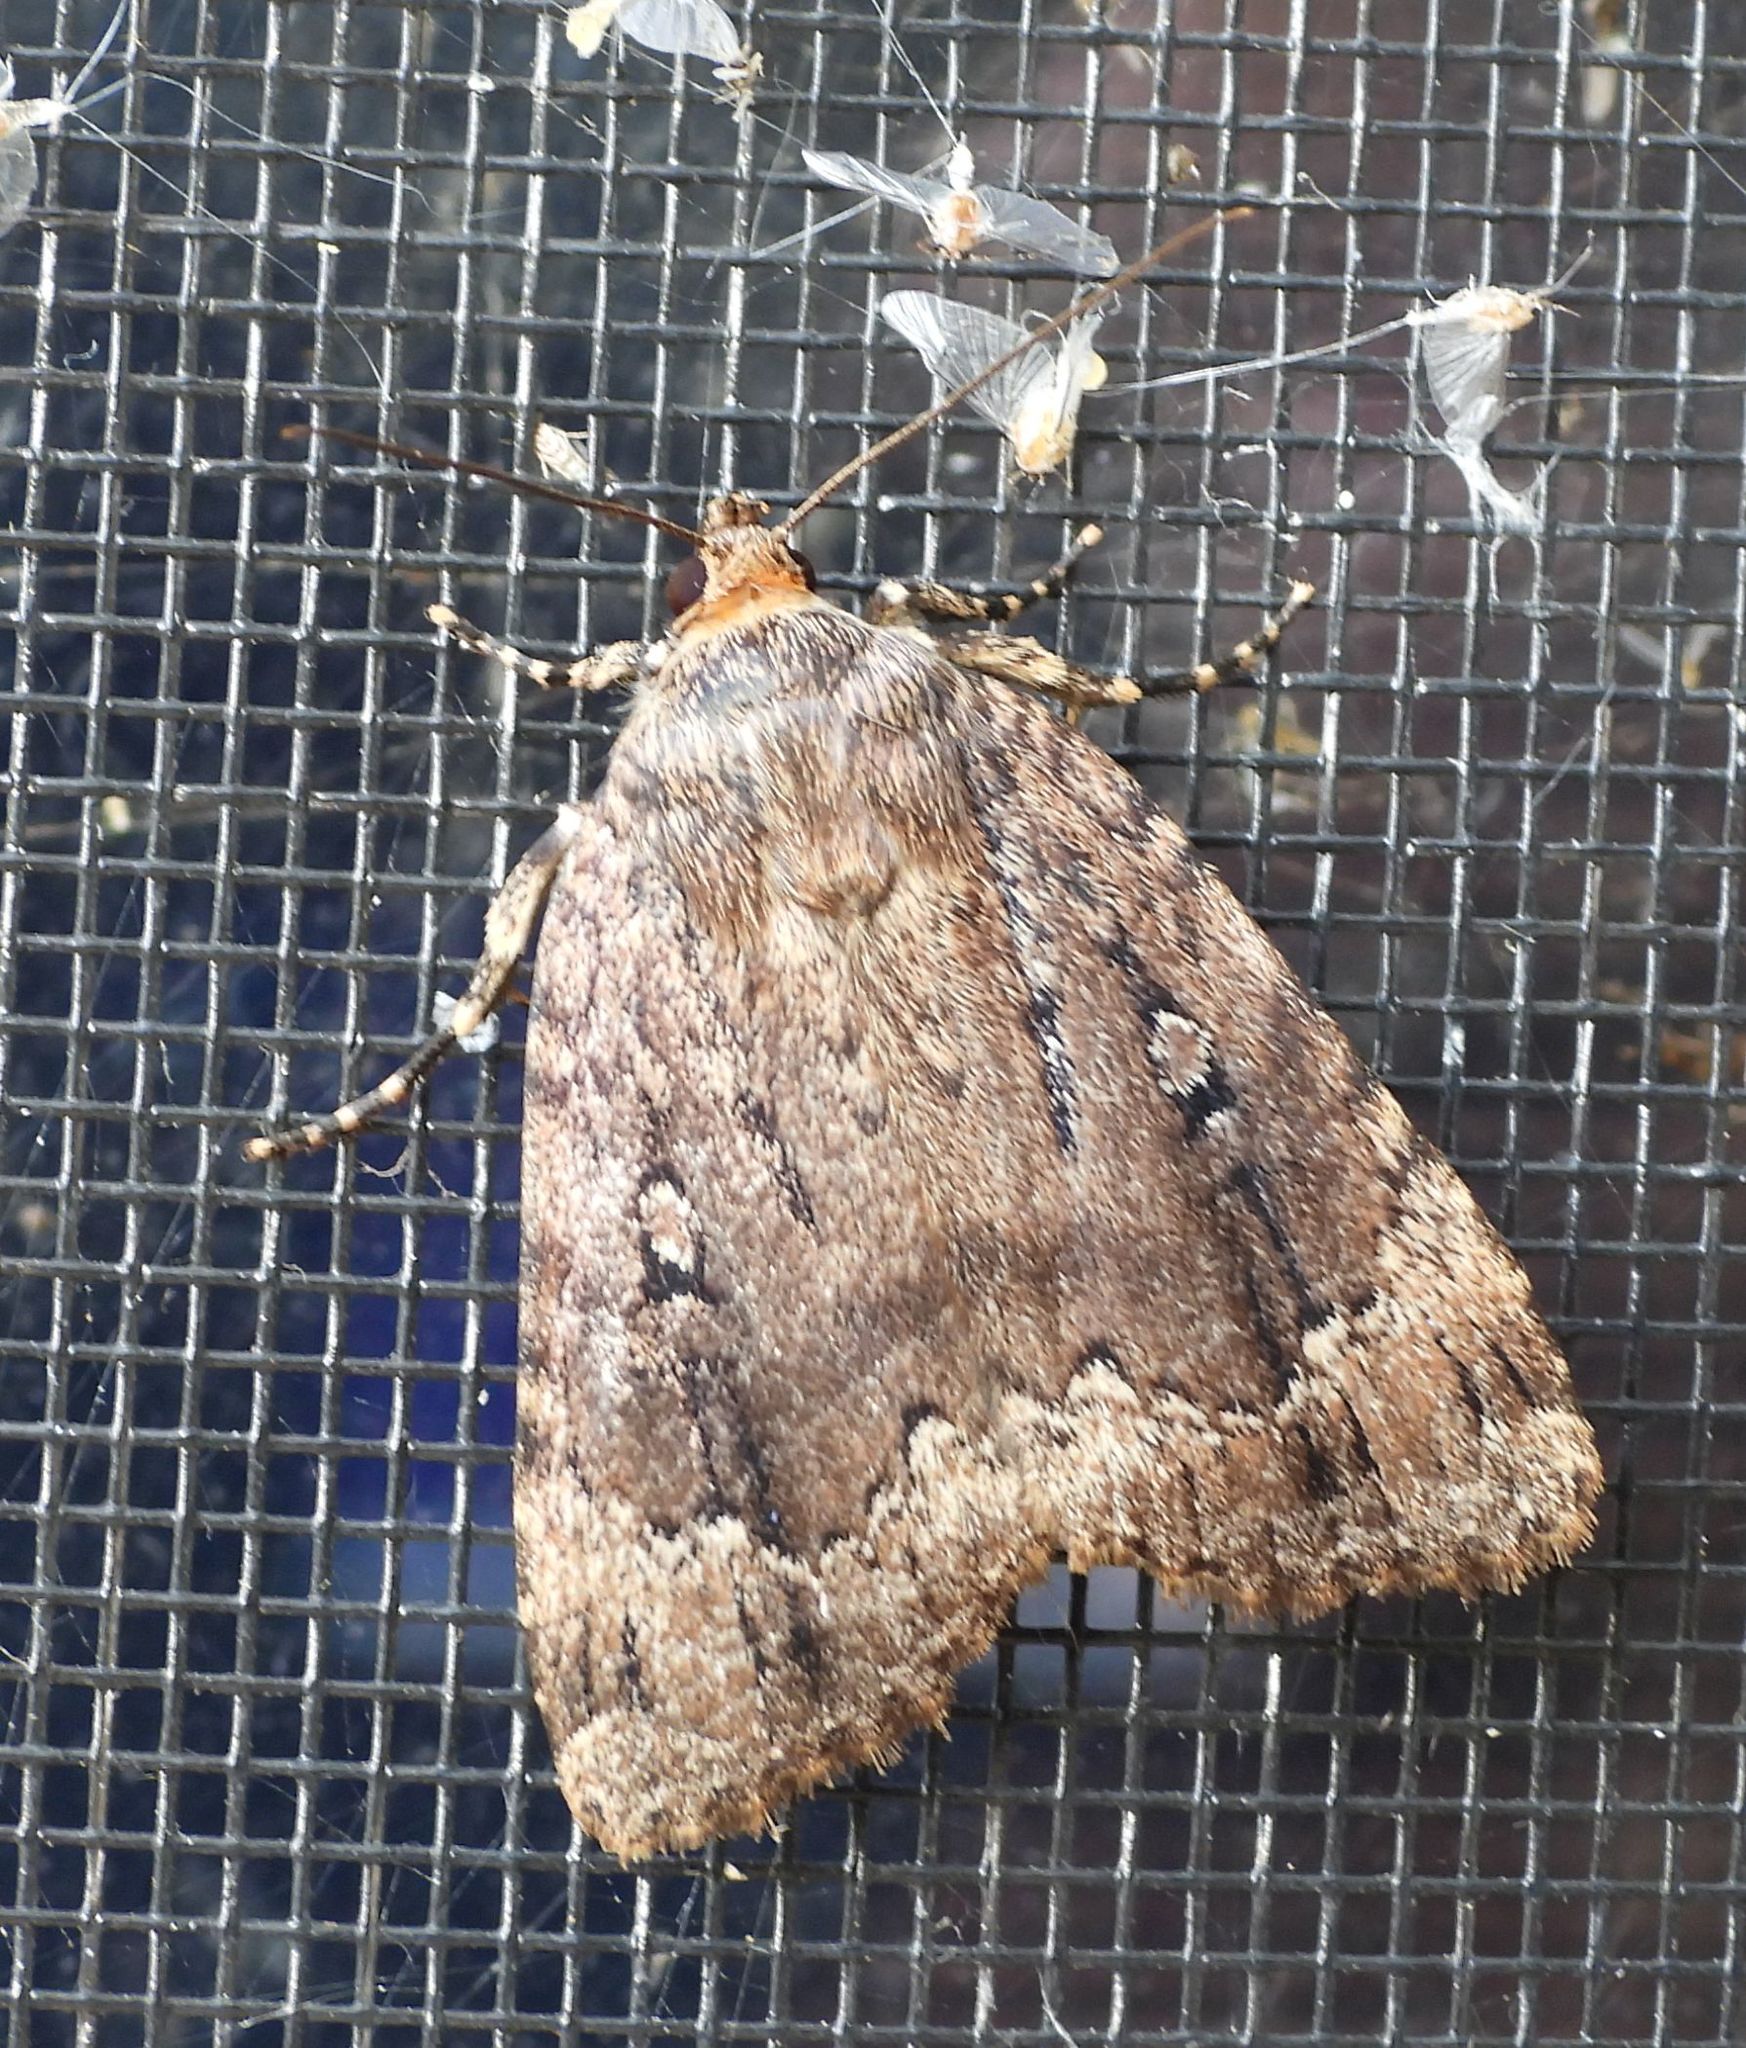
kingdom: Animalia
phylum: Arthropoda
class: Insecta
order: Lepidoptera
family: Noctuidae
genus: Amphipyra
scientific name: Amphipyra pyramidoides
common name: American copper underwing
